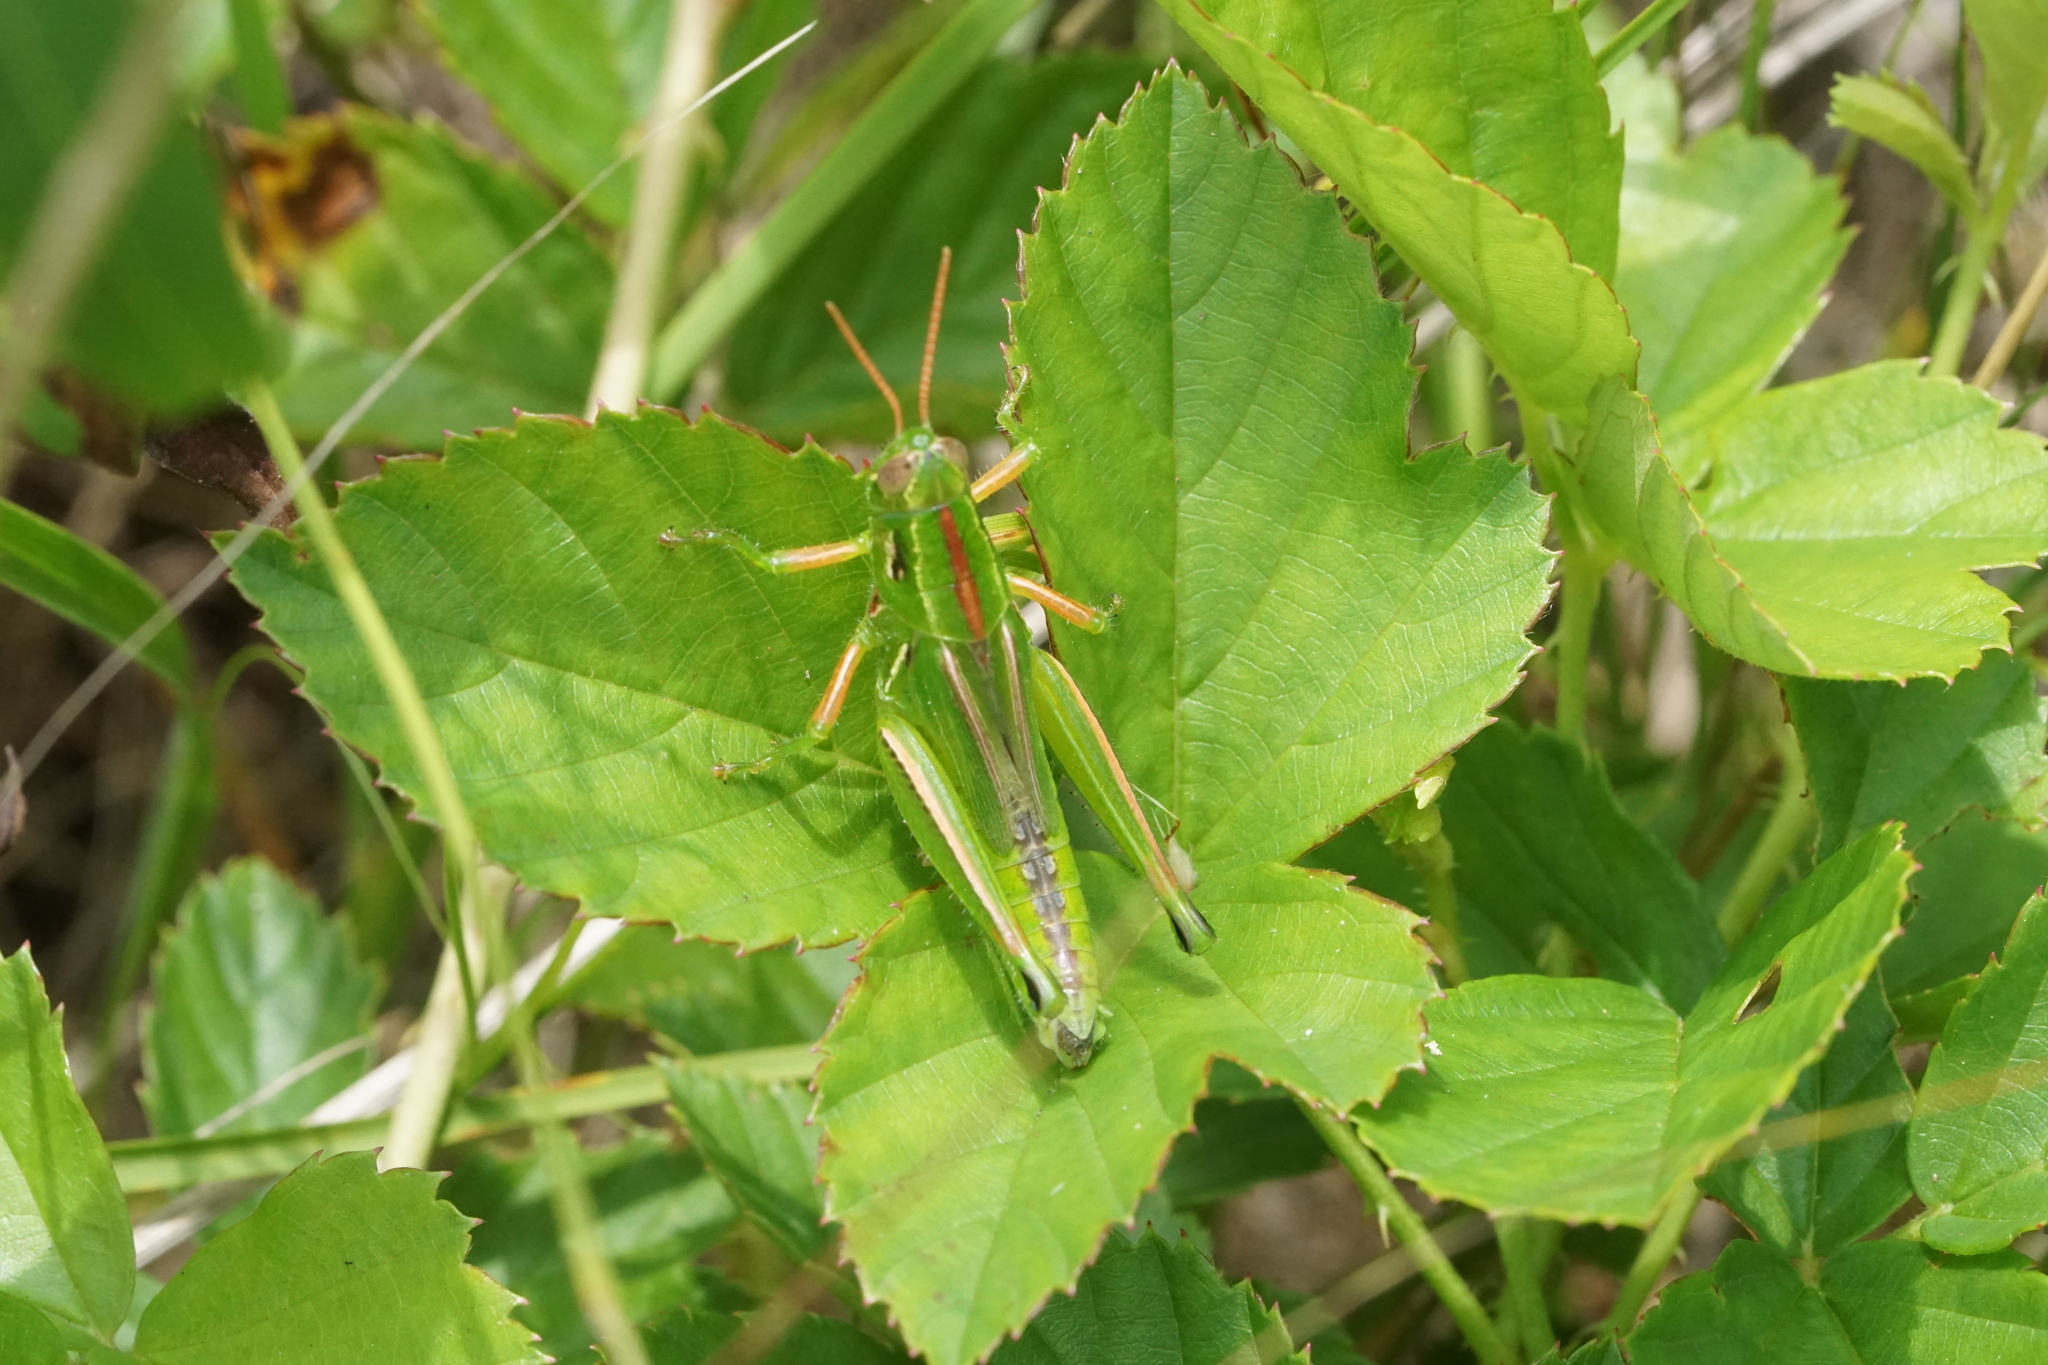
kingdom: Animalia
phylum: Arthropoda
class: Insecta
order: Orthoptera
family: Acrididae
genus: Hesperotettix
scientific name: Hesperotettix viridis
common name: Meadow purple-striped grasshopper
